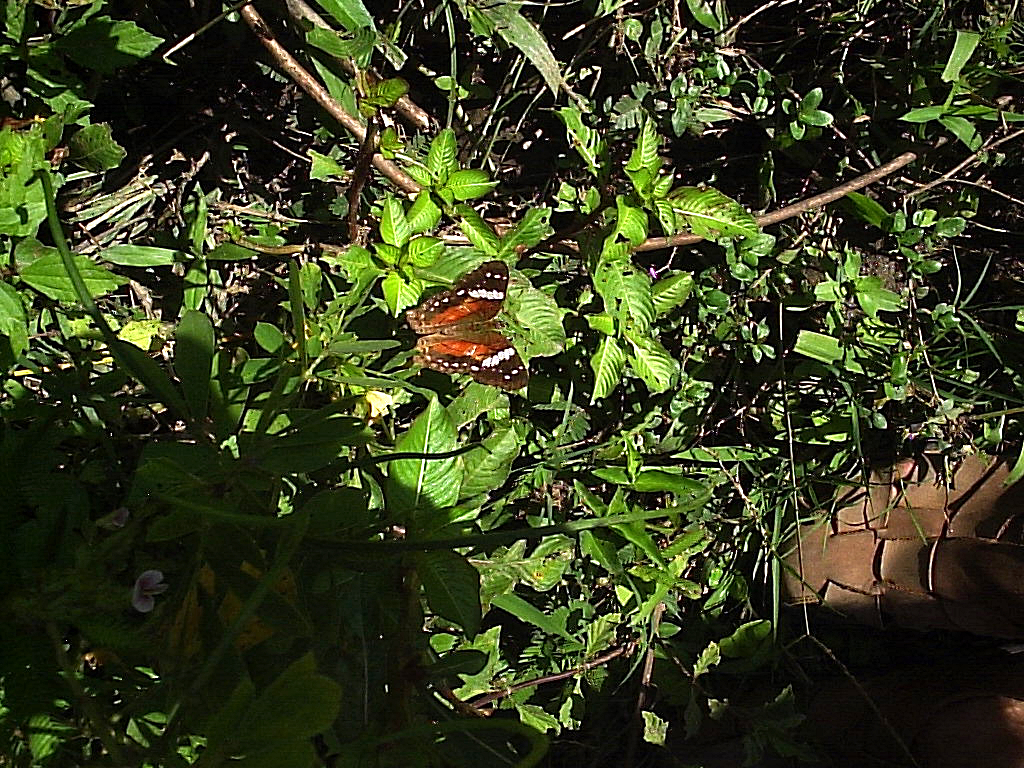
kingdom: Animalia
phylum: Arthropoda
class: Insecta
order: Lepidoptera
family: Nymphalidae
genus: Anartia
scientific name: Anartia amathea
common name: Red peacock
